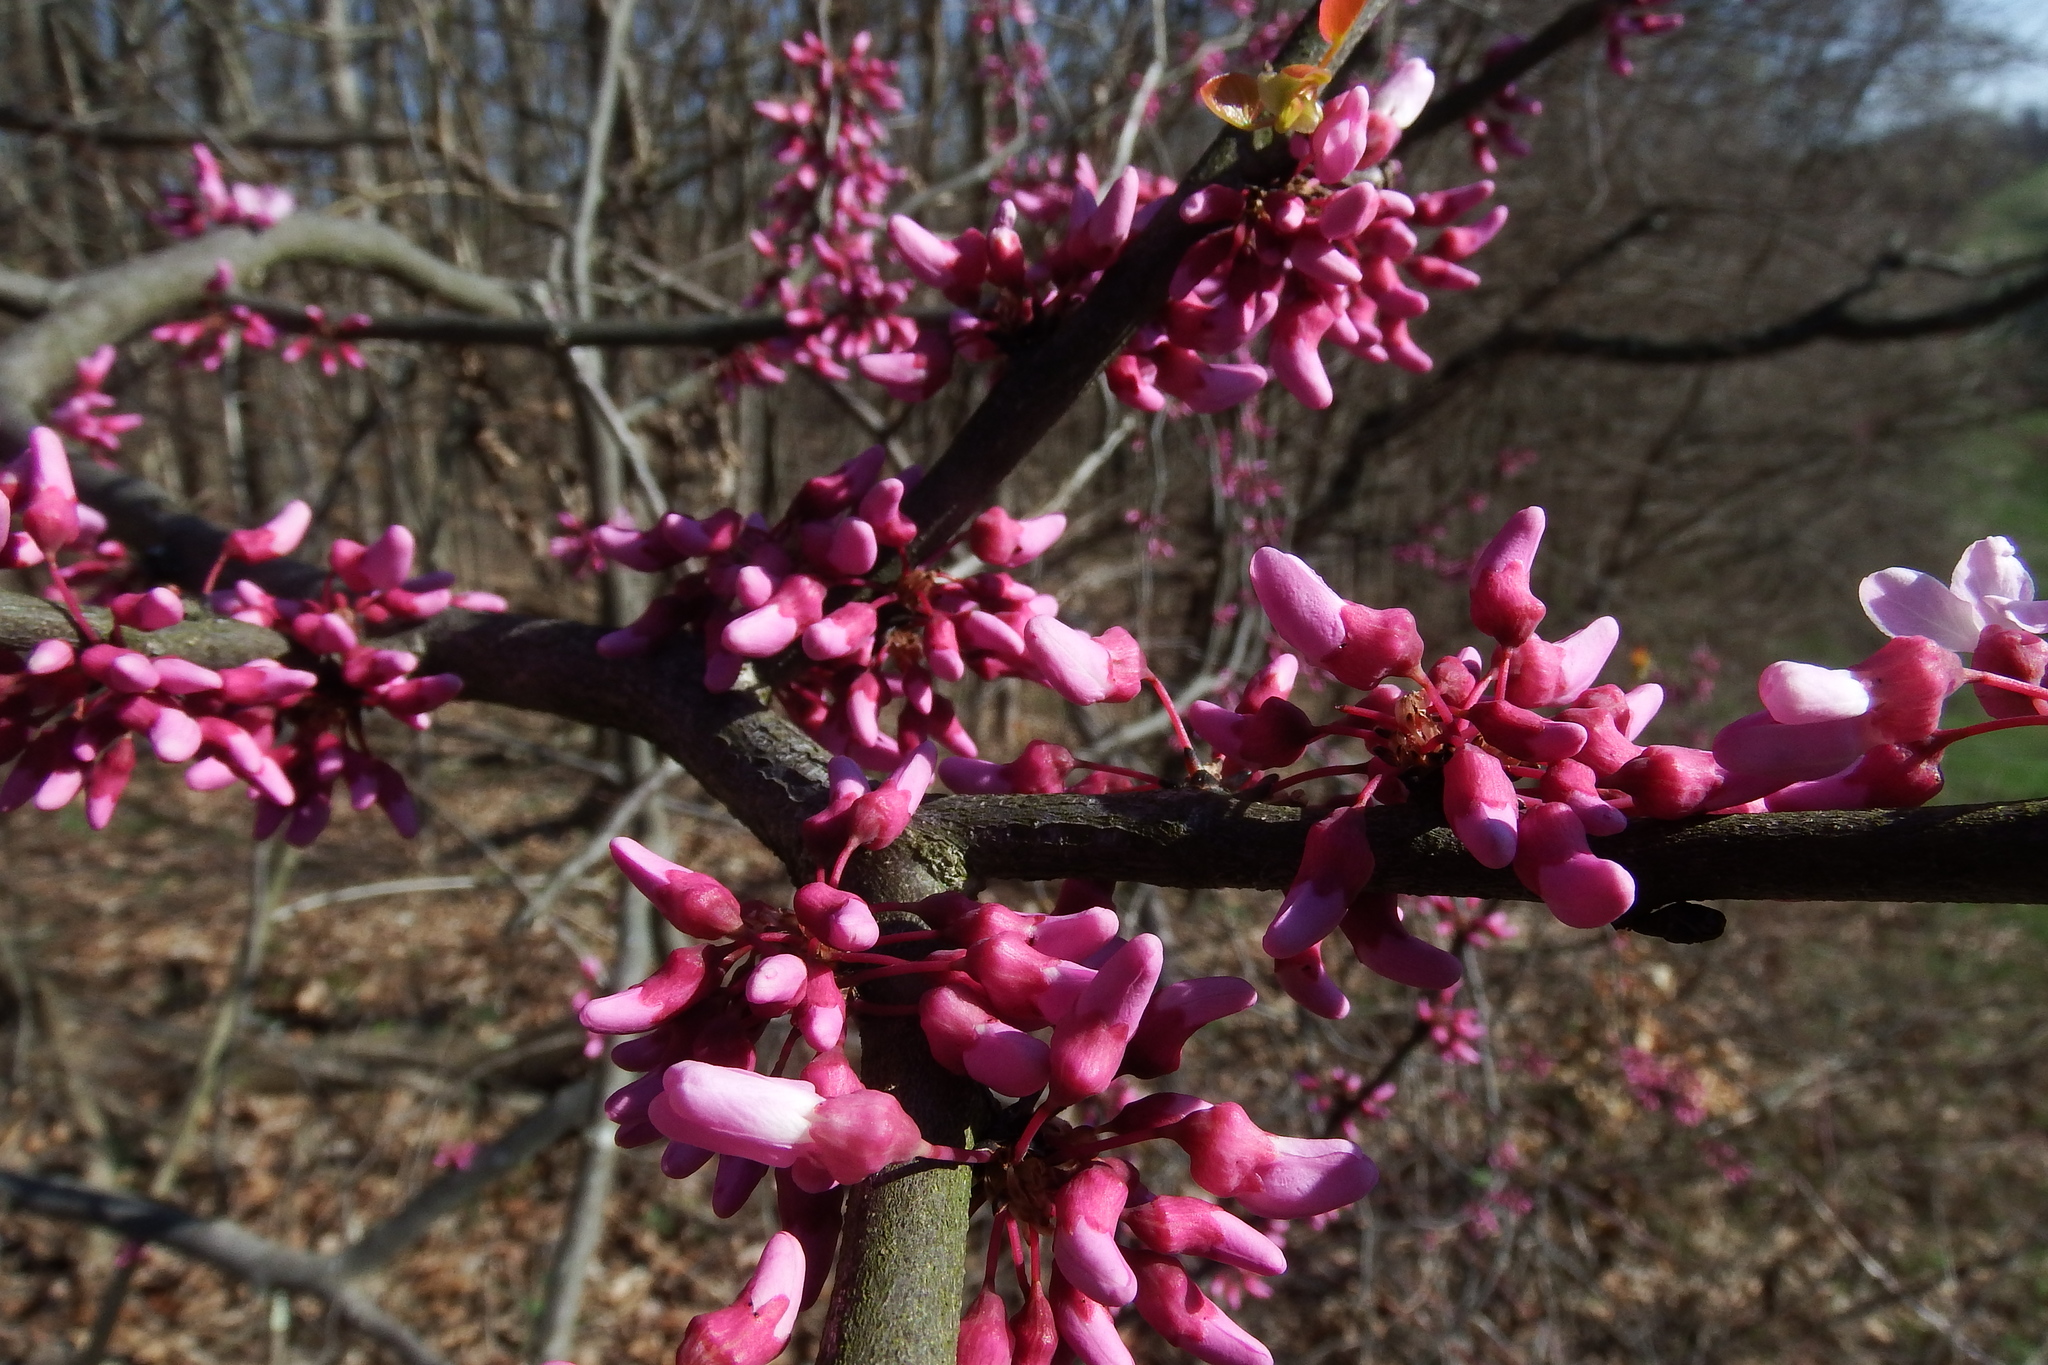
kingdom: Plantae
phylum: Tracheophyta
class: Magnoliopsida
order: Fabales
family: Fabaceae
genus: Cercis
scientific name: Cercis canadensis
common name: Eastern redbud
